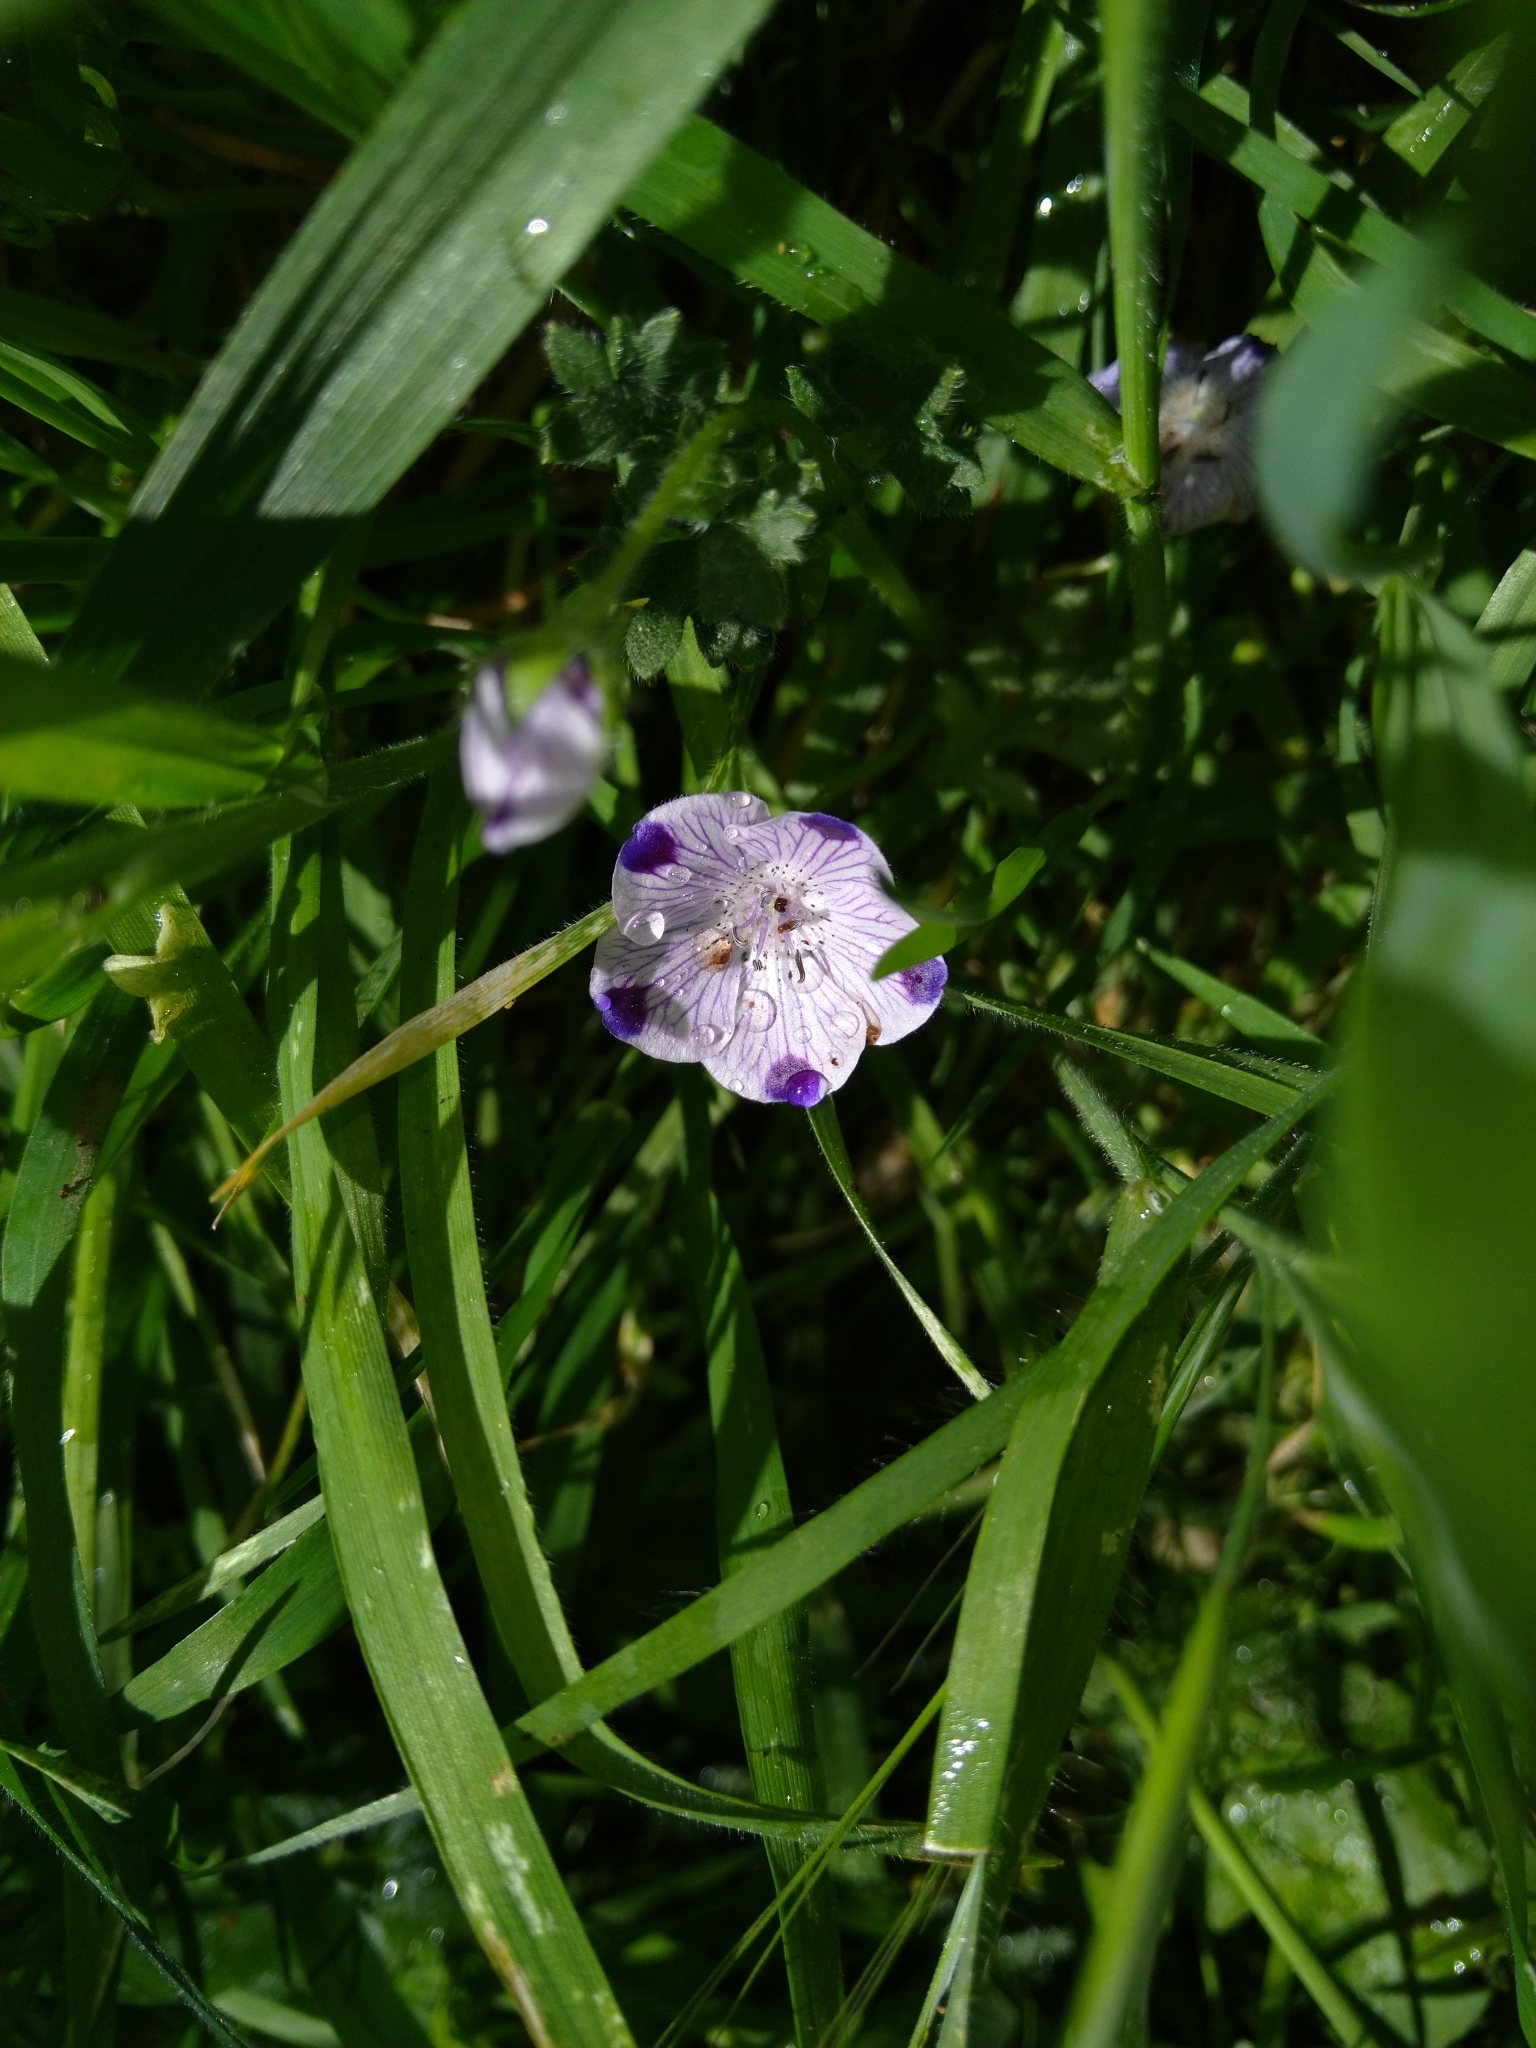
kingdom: Plantae
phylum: Tracheophyta
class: Magnoliopsida
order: Boraginales
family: Hydrophyllaceae
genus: Nemophila
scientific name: Nemophila maculata
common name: Fivespot
